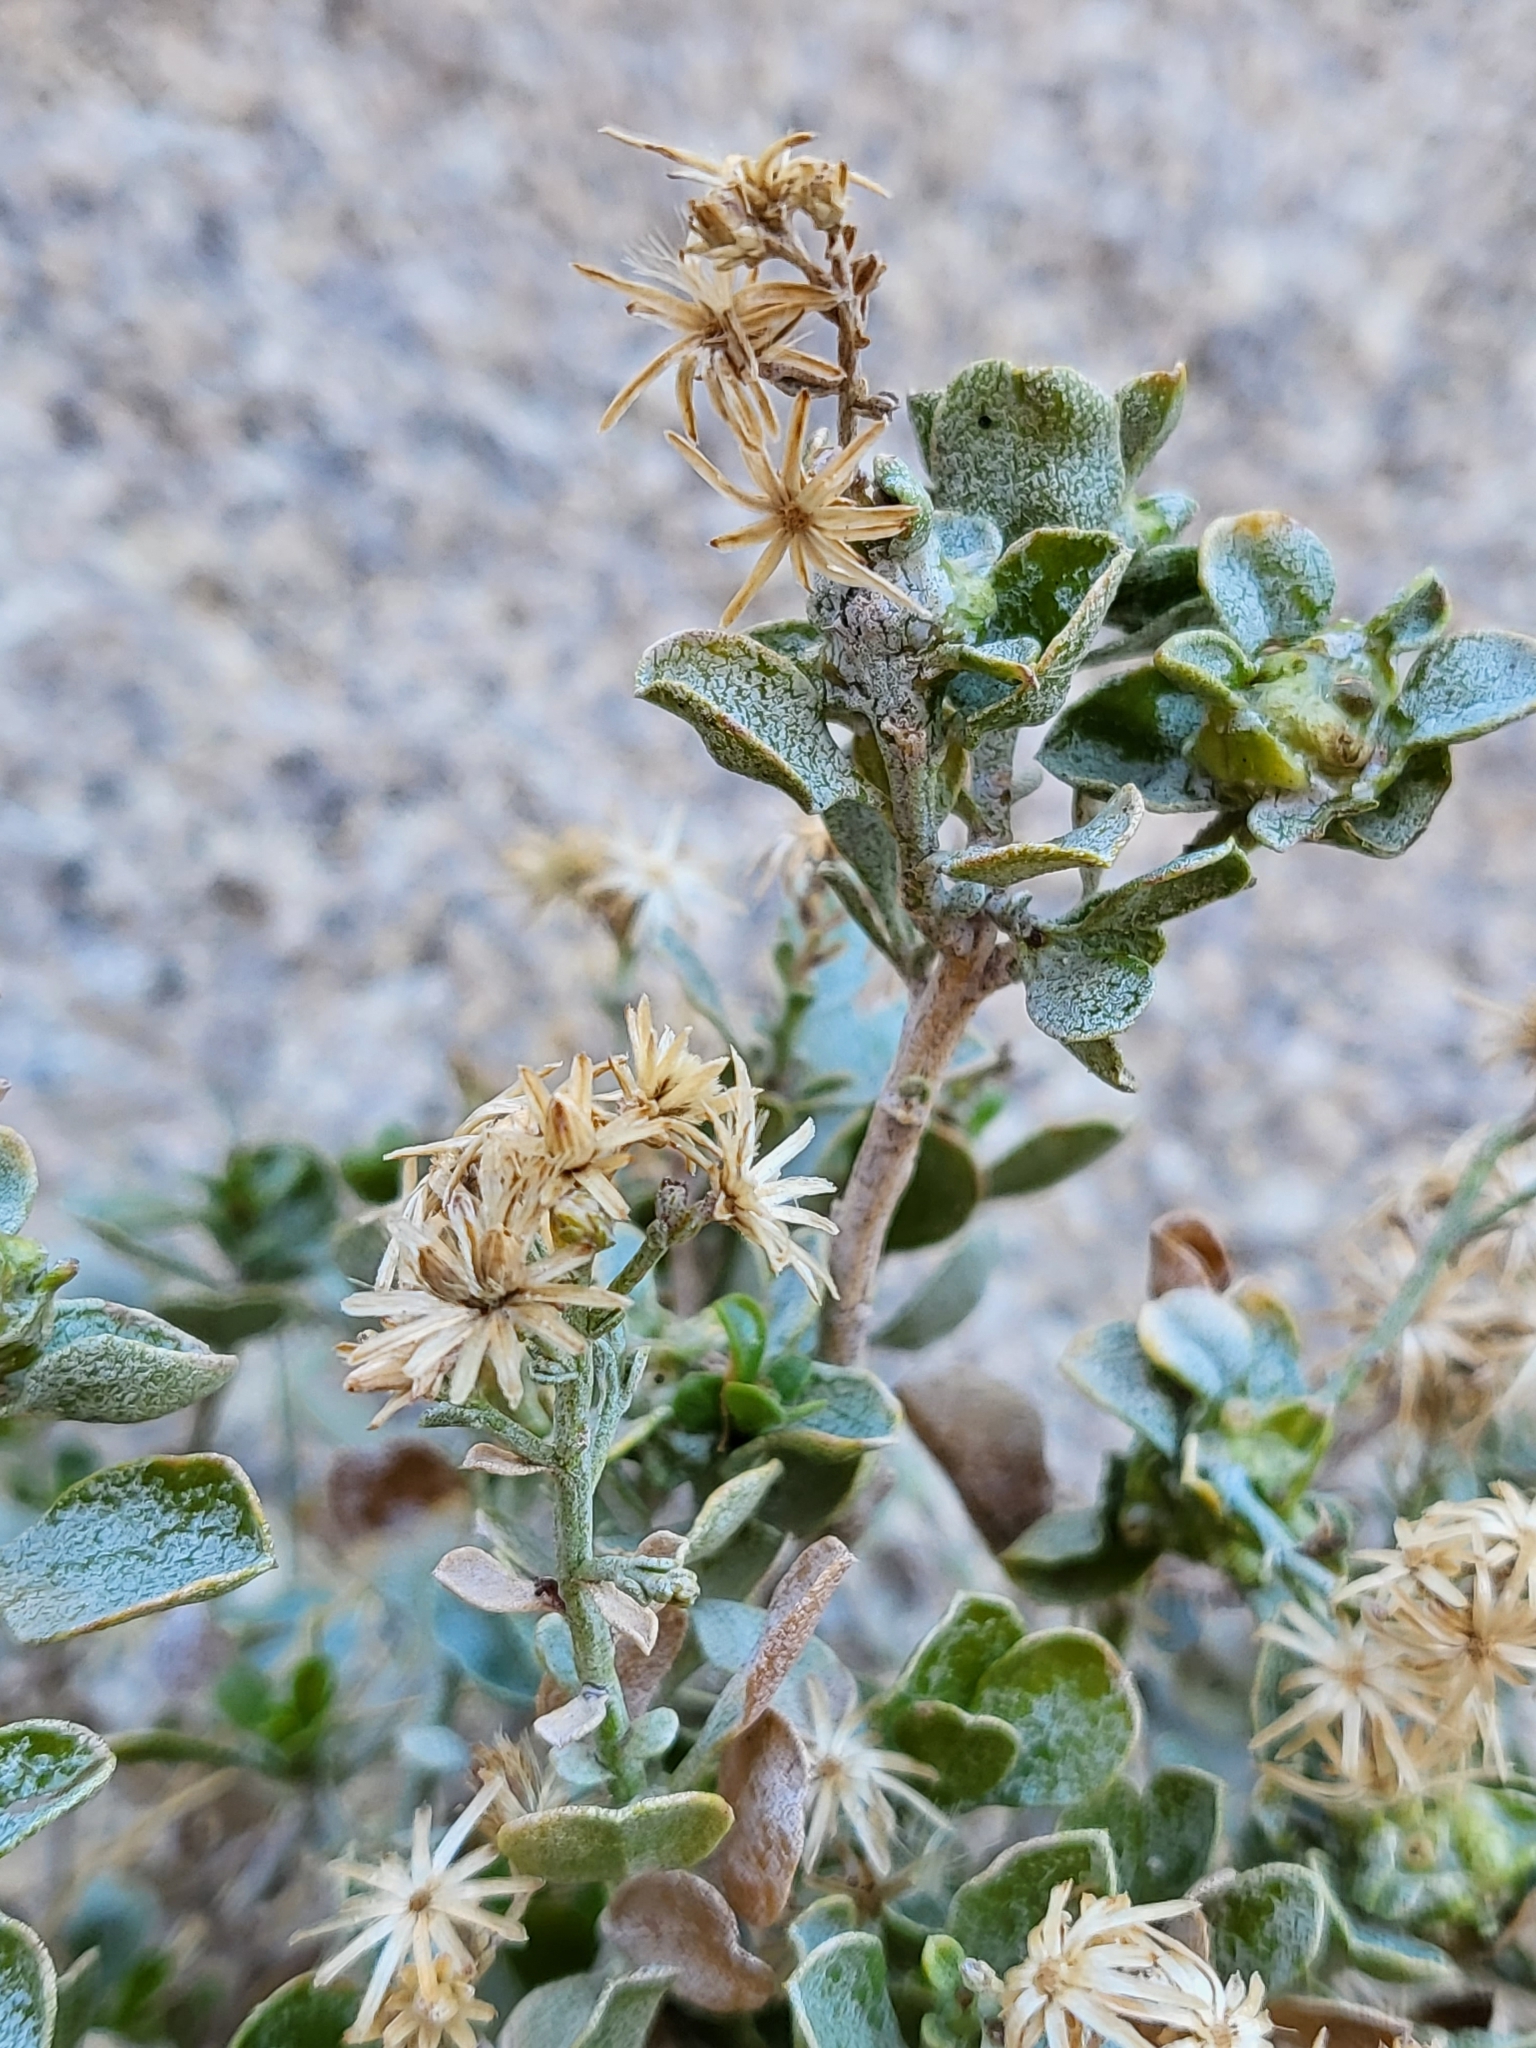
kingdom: Plantae
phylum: Tracheophyta
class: Magnoliopsida
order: Asterales
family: Asteraceae
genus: Ericameria
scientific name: Ericameria cuneata
